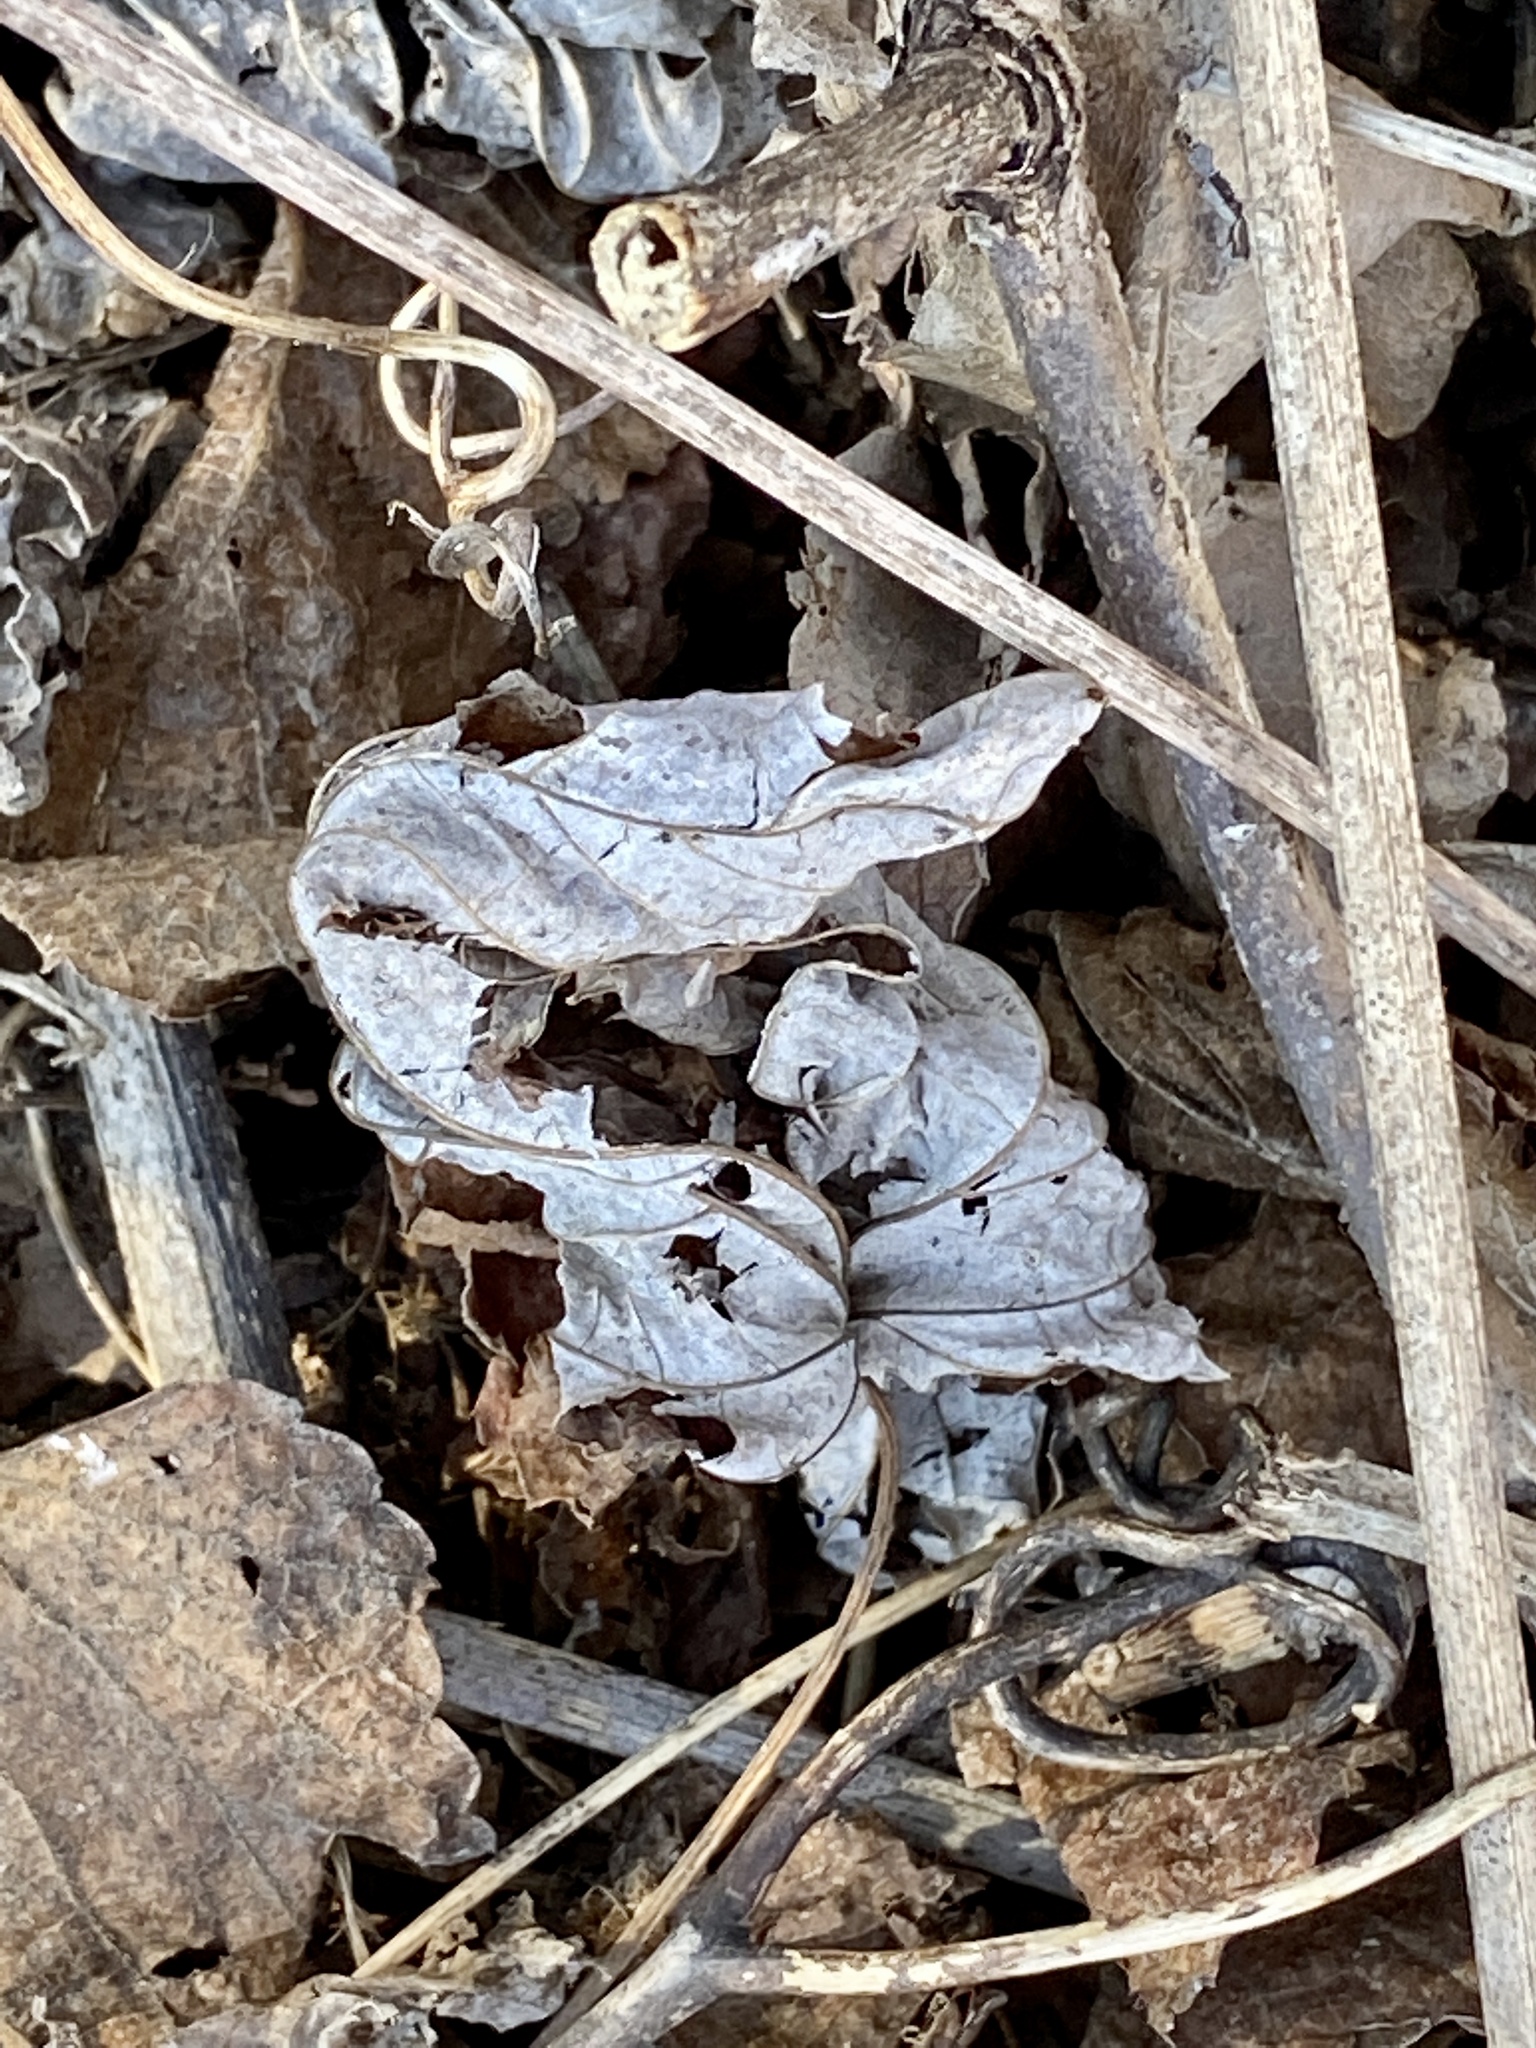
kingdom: Plantae
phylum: Tracheophyta
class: Magnoliopsida
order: Sapindales
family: Sapindaceae
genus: Acer
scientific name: Acer saccharinum
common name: Silver maple
